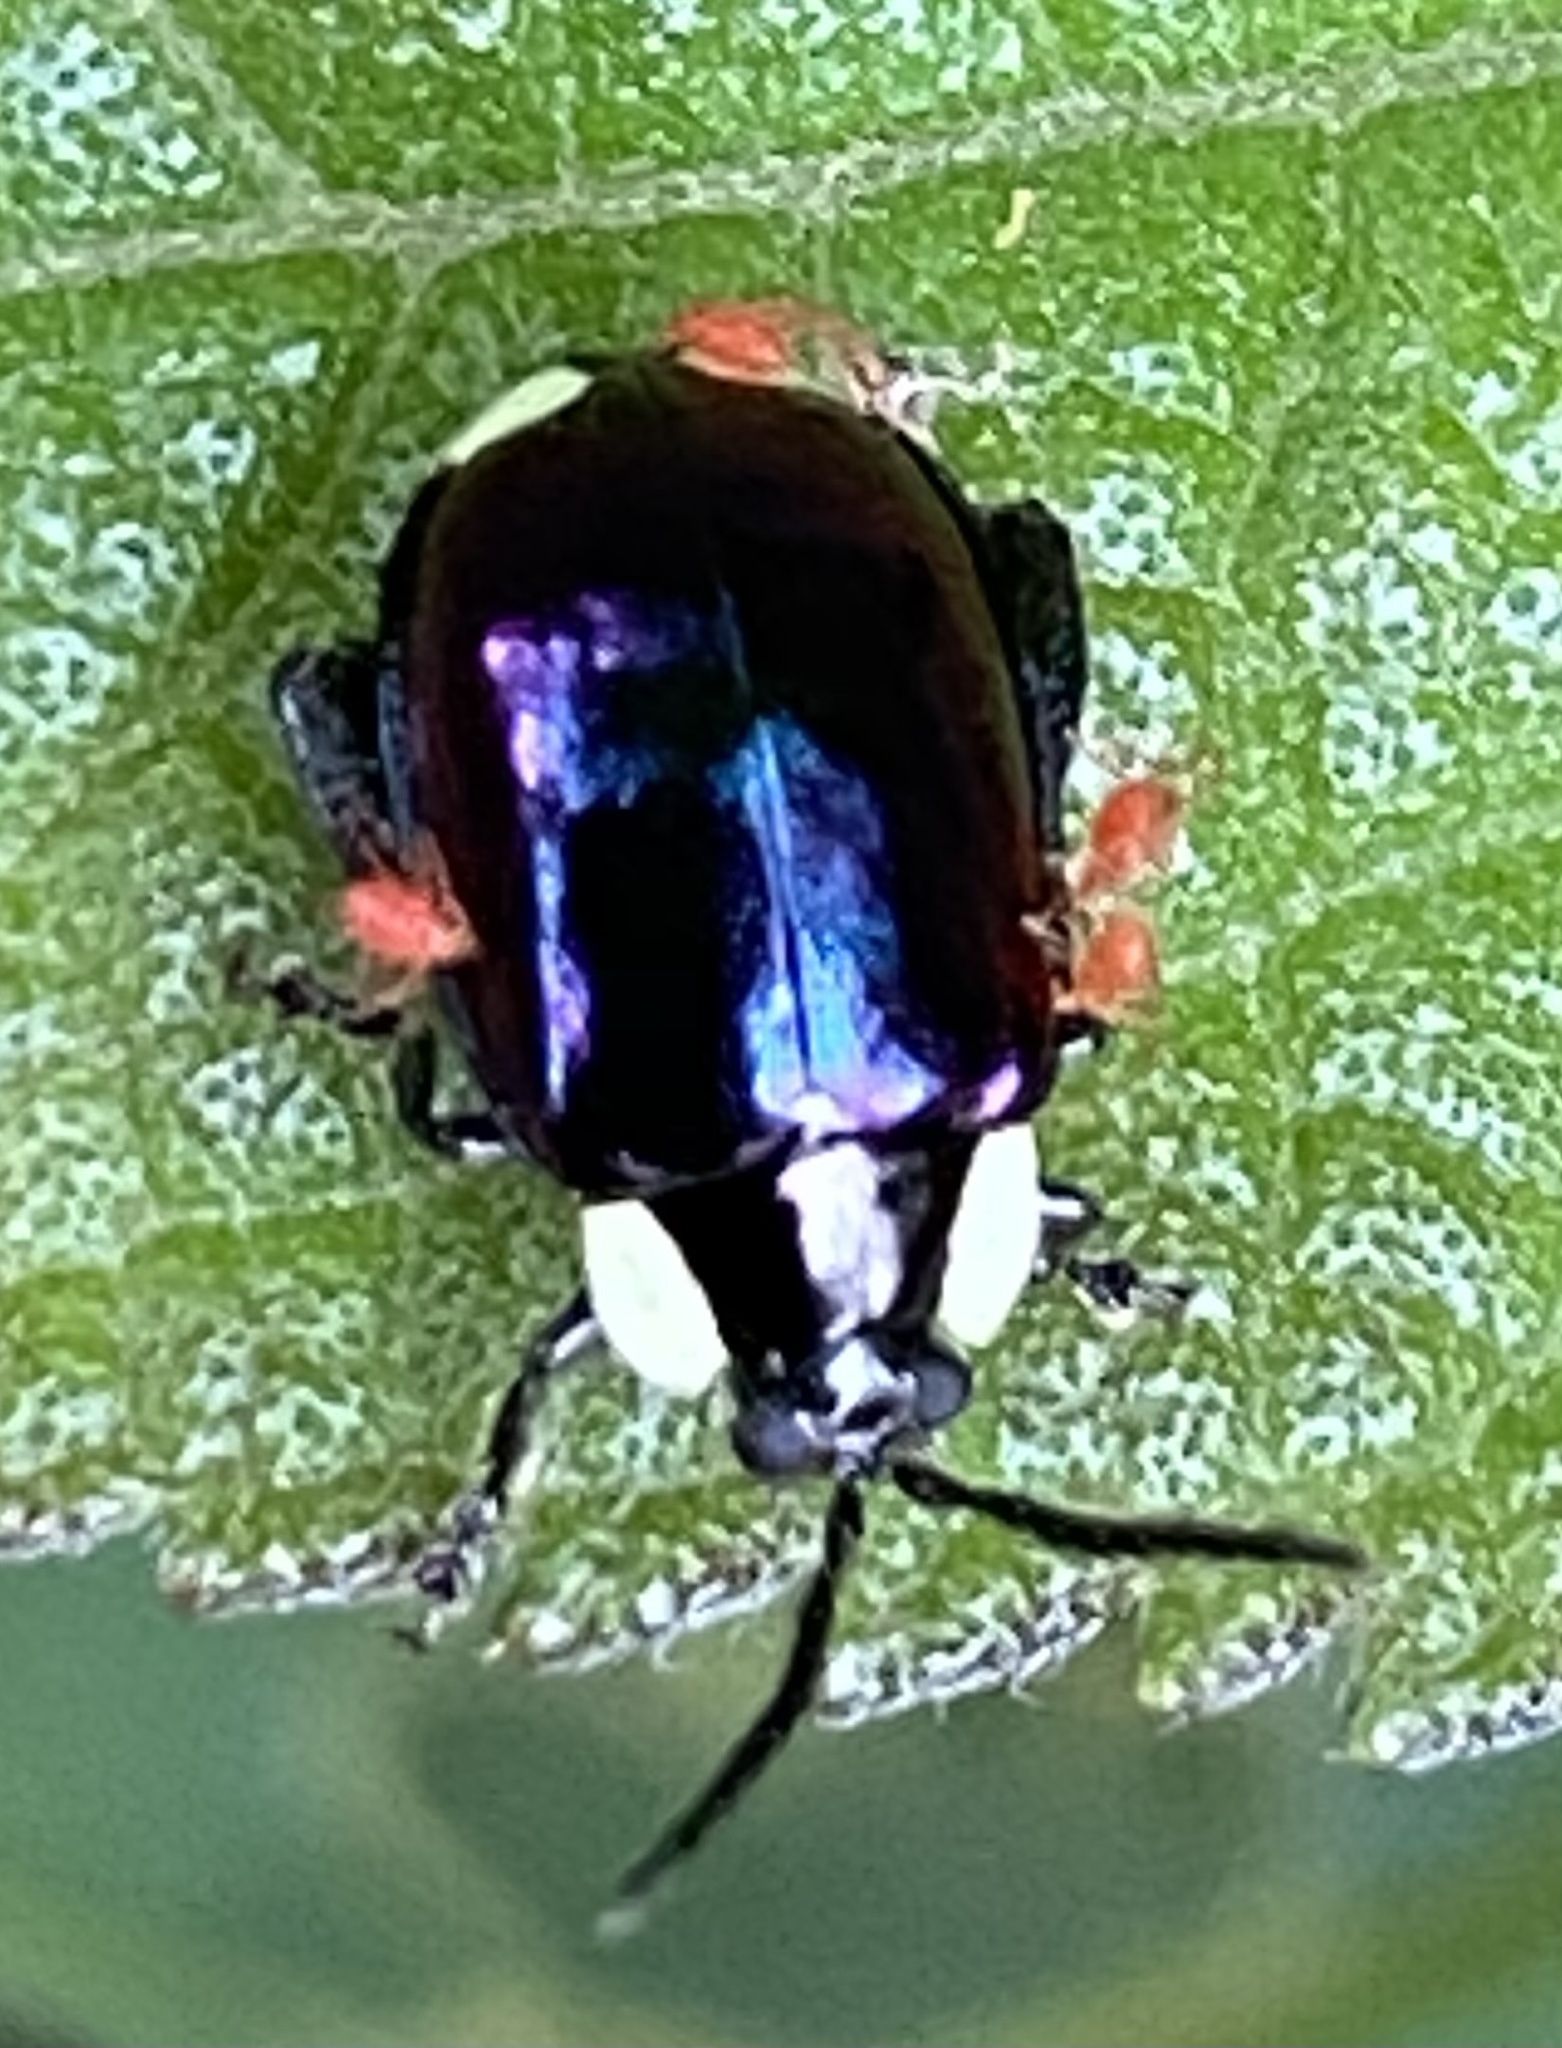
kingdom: Animalia
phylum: Arthropoda
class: Insecta
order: Coleoptera
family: Chrysomelidae
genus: Alagoasa
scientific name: Alagoasa
